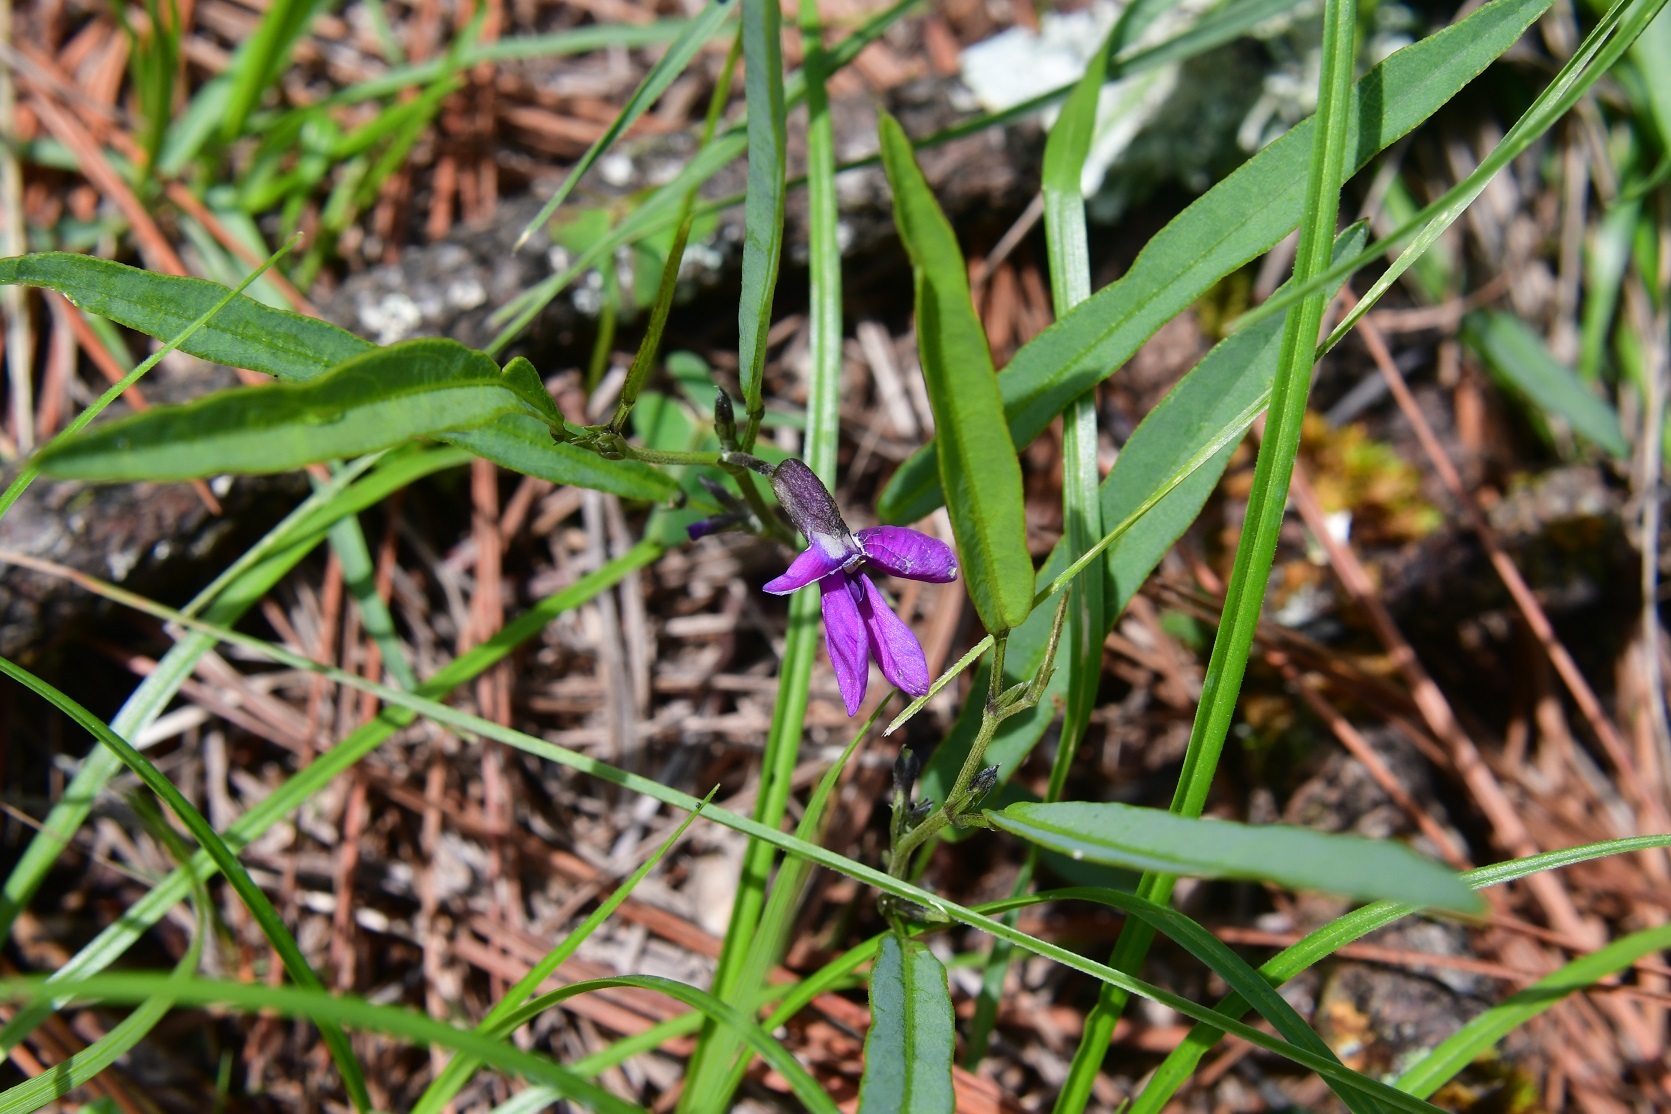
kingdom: Plantae
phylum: Tracheophyta
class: Magnoliopsida
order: Fabales
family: Fabaceae
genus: Cologania
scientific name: Cologania procumbens
